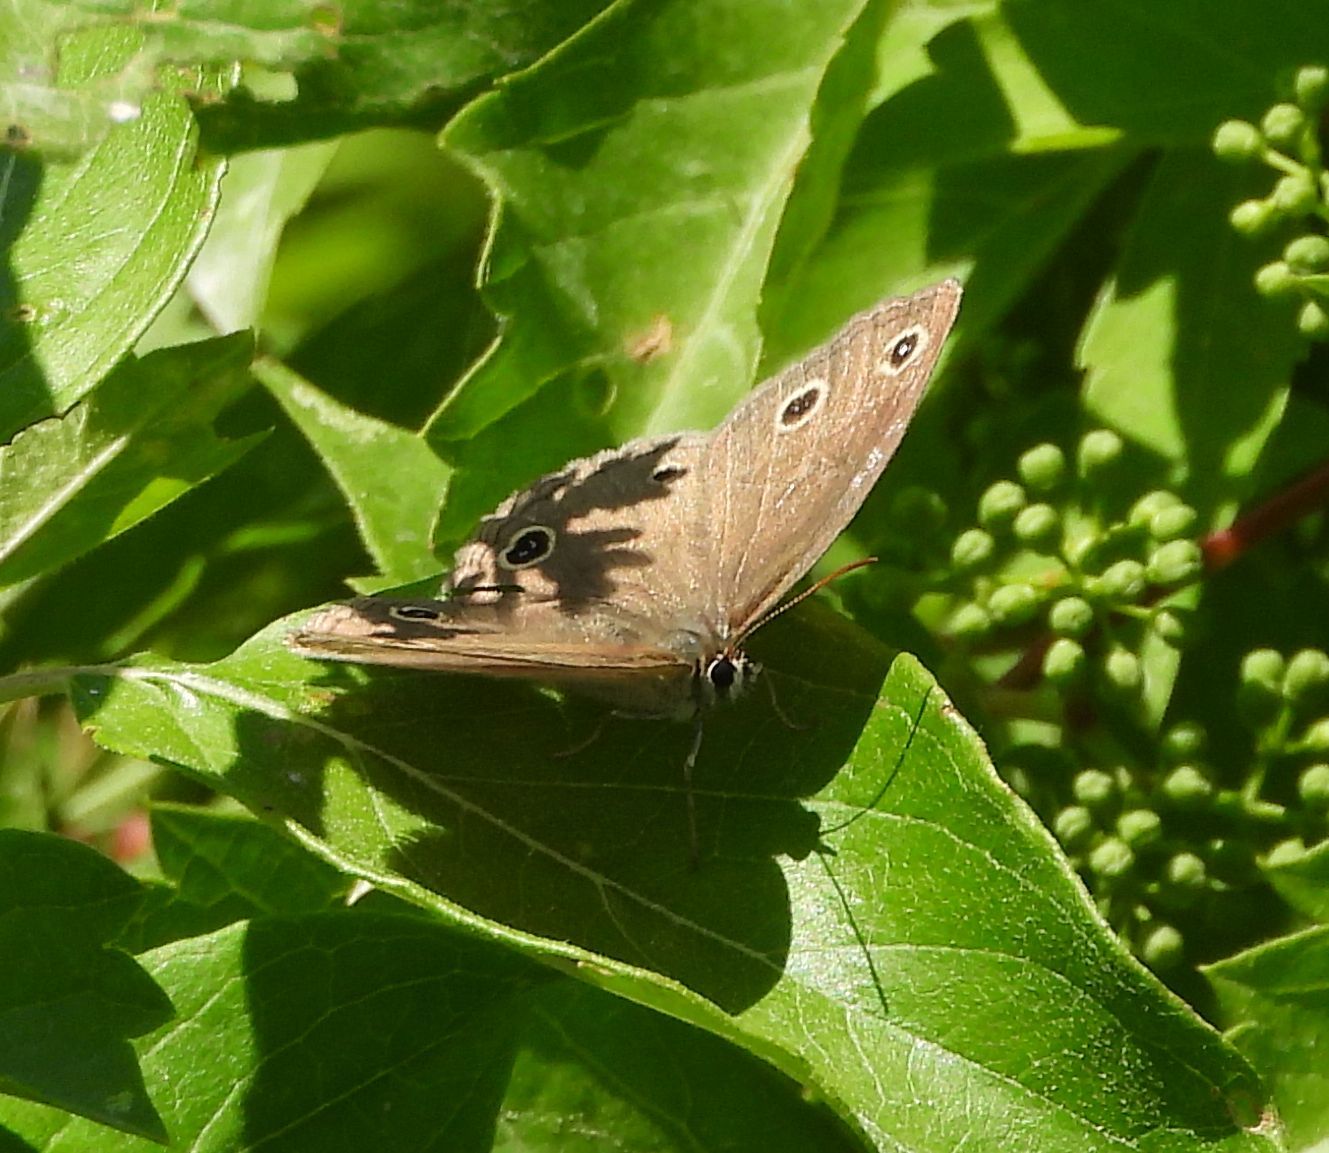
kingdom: Animalia
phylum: Arthropoda
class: Insecta
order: Lepidoptera
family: Nymphalidae
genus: Euptychia
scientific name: Euptychia cymela
